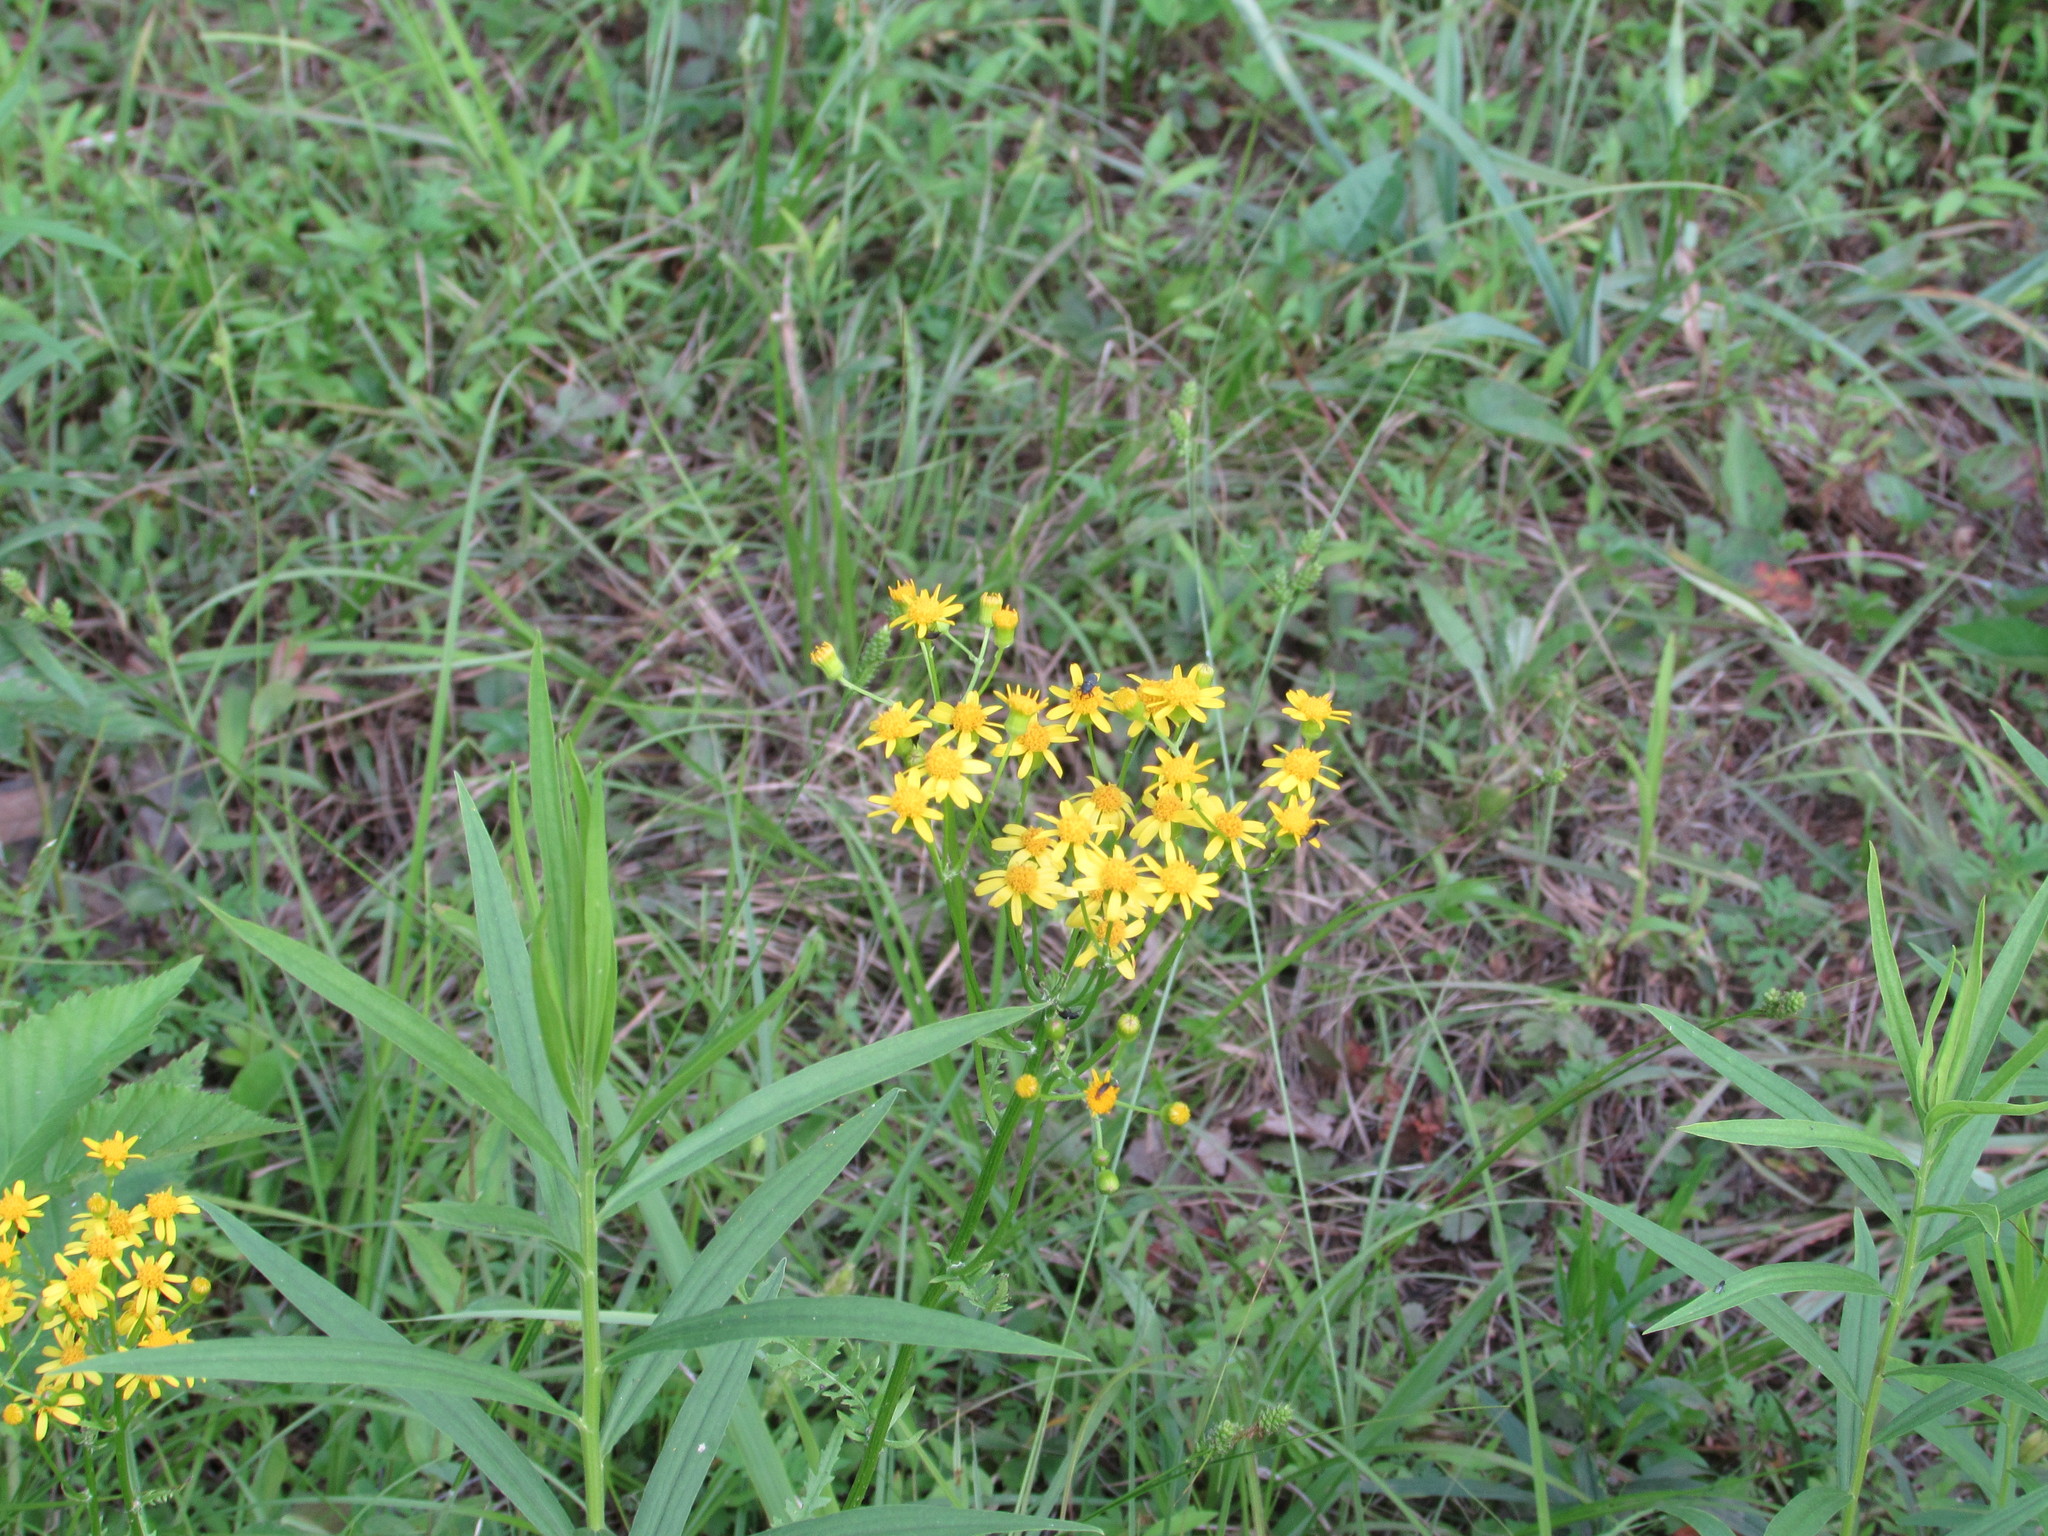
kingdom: Plantae
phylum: Tracheophyta
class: Magnoliopsida
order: Asterales
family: Asteraceae
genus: Packera
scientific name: Packera anonyma
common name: Small ragwort
